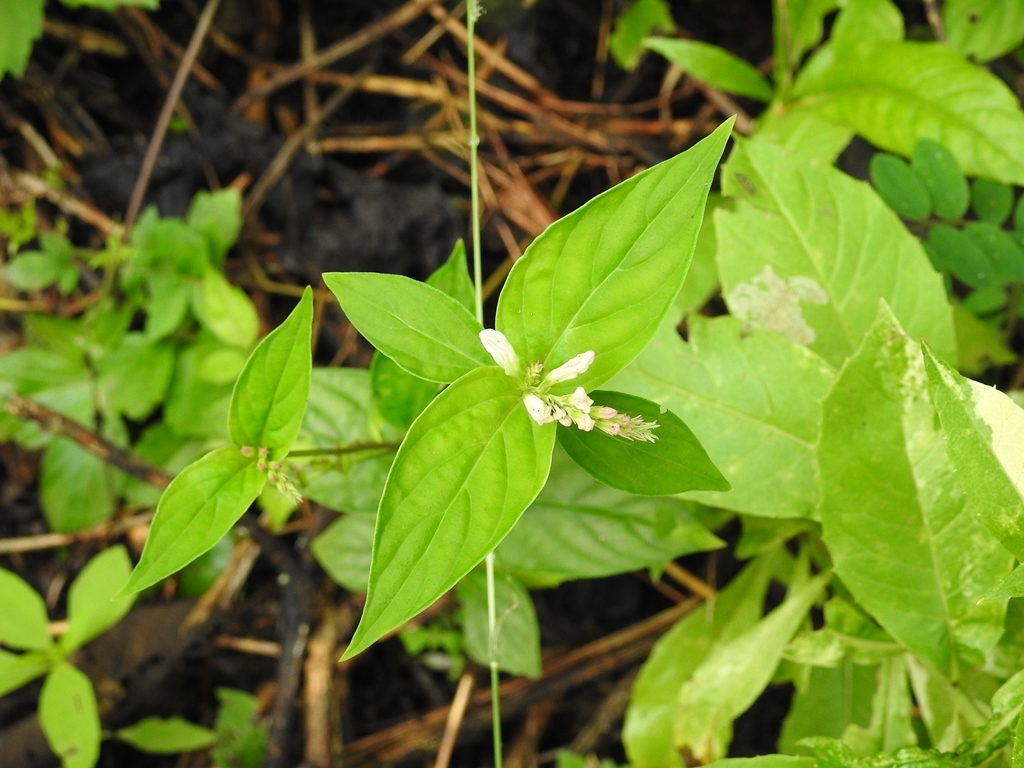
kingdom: Plantae
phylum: Tracheophyta
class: Magnoliopsida
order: Gentianales
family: Loganiaceae
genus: Spigelia
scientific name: Spigelia humboldtiana
